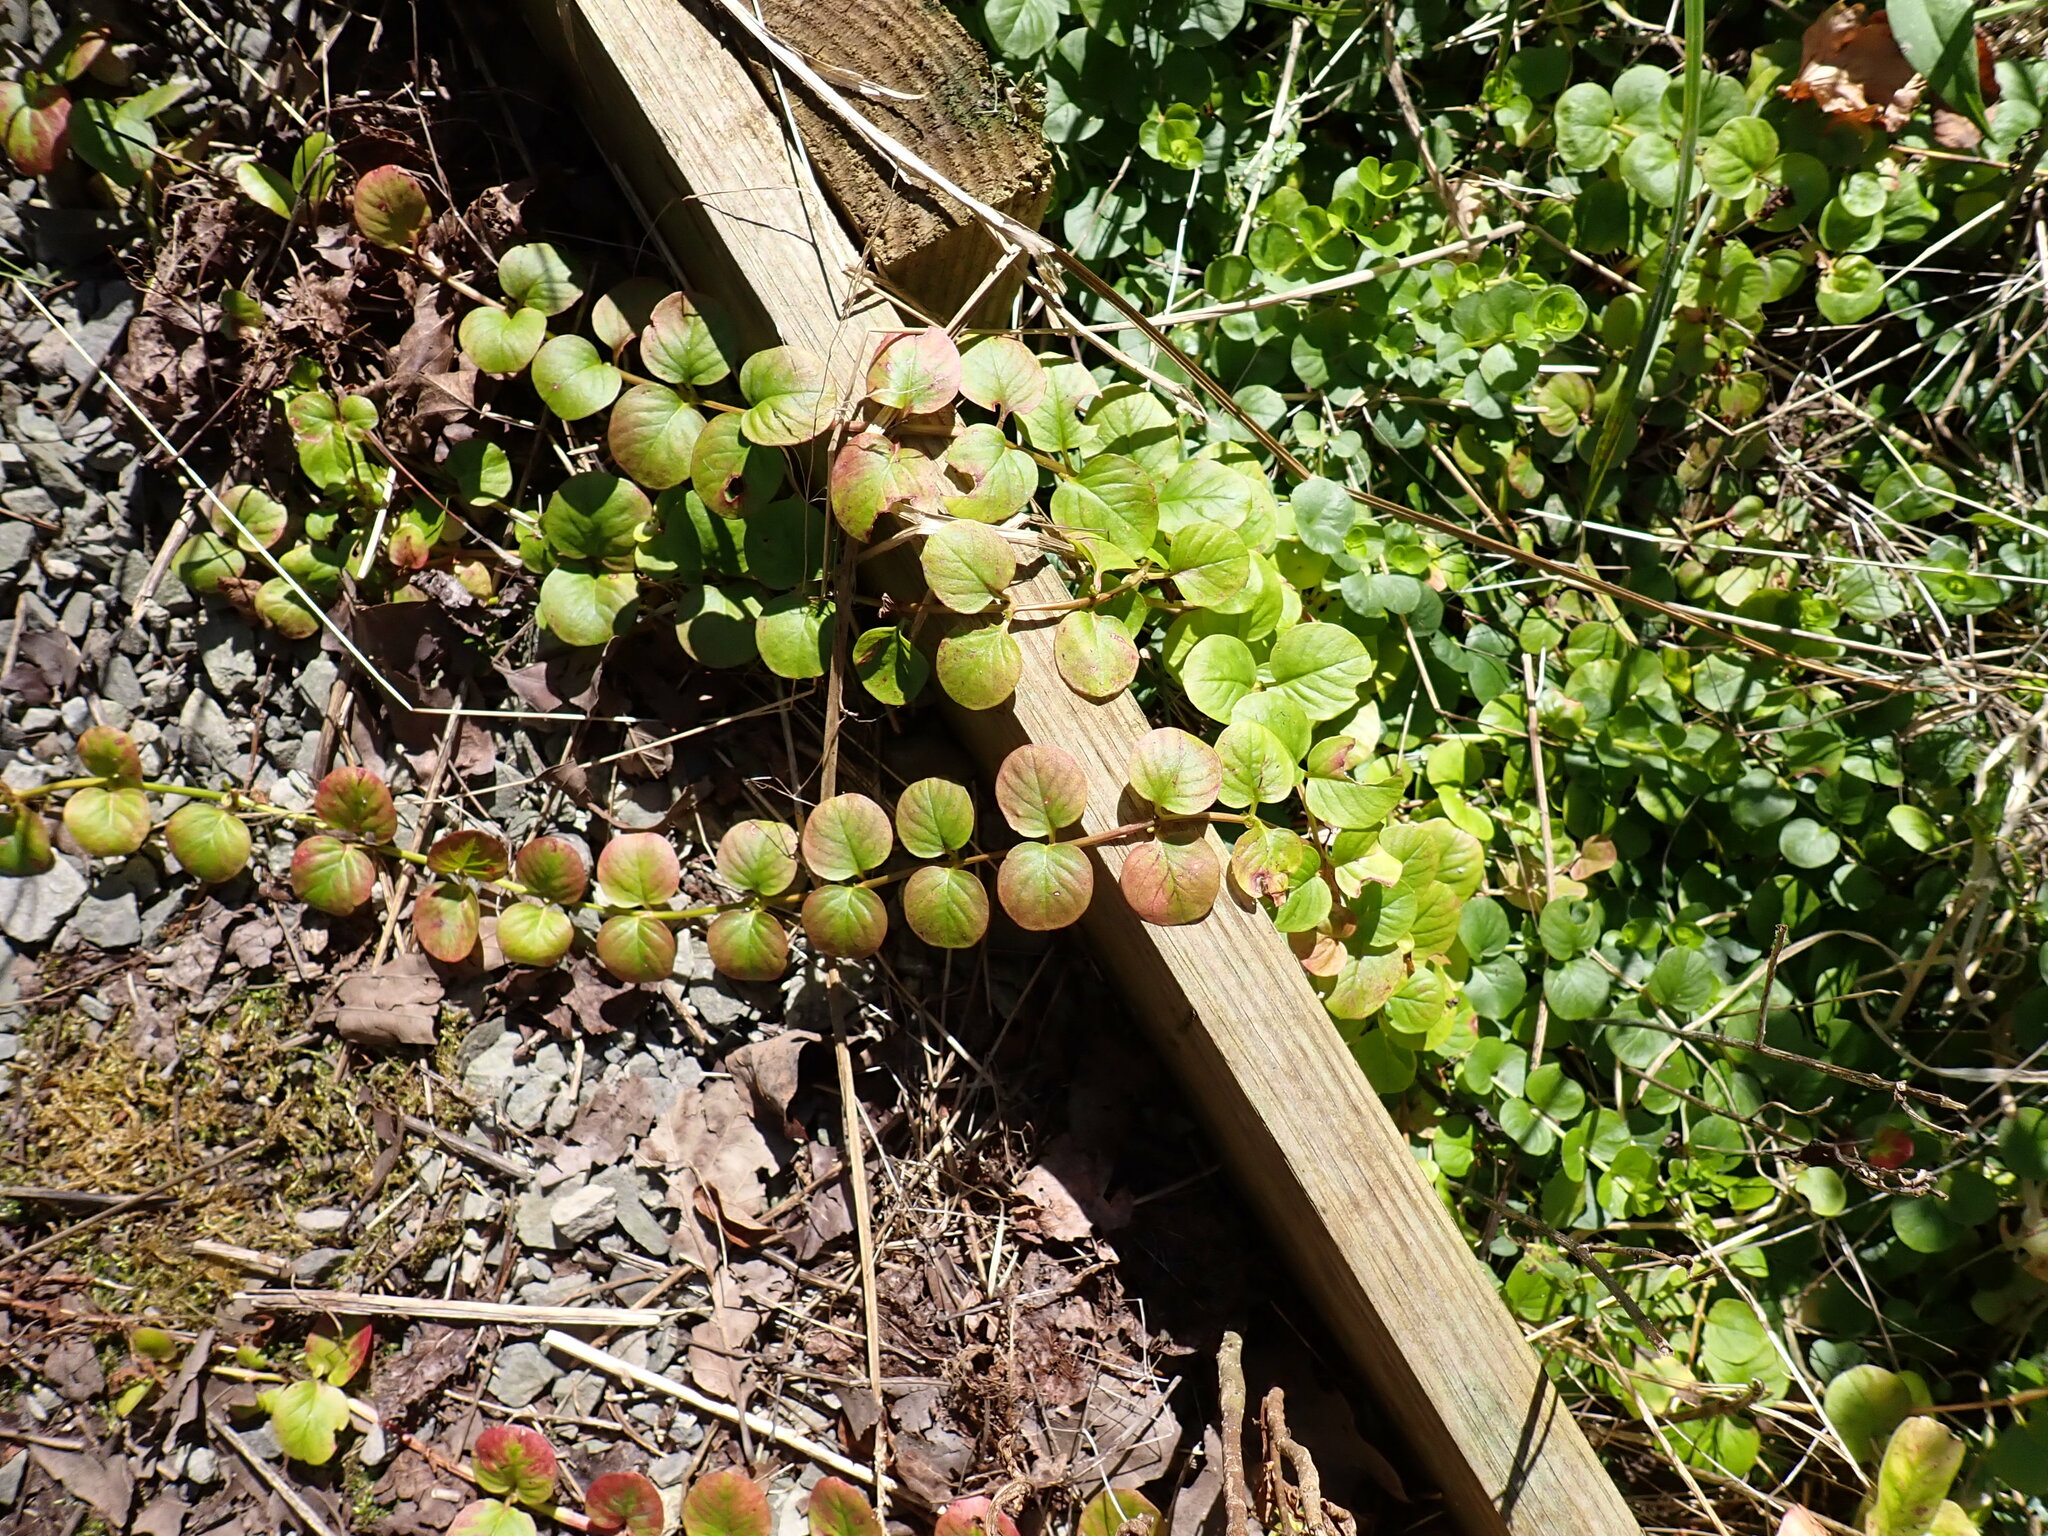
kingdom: Plantae
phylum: Tracheophyta
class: Magnoliopsida
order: Ericales
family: Primulaceae
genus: Lysimachia
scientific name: Lysimachia nummularia
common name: Moneywort
